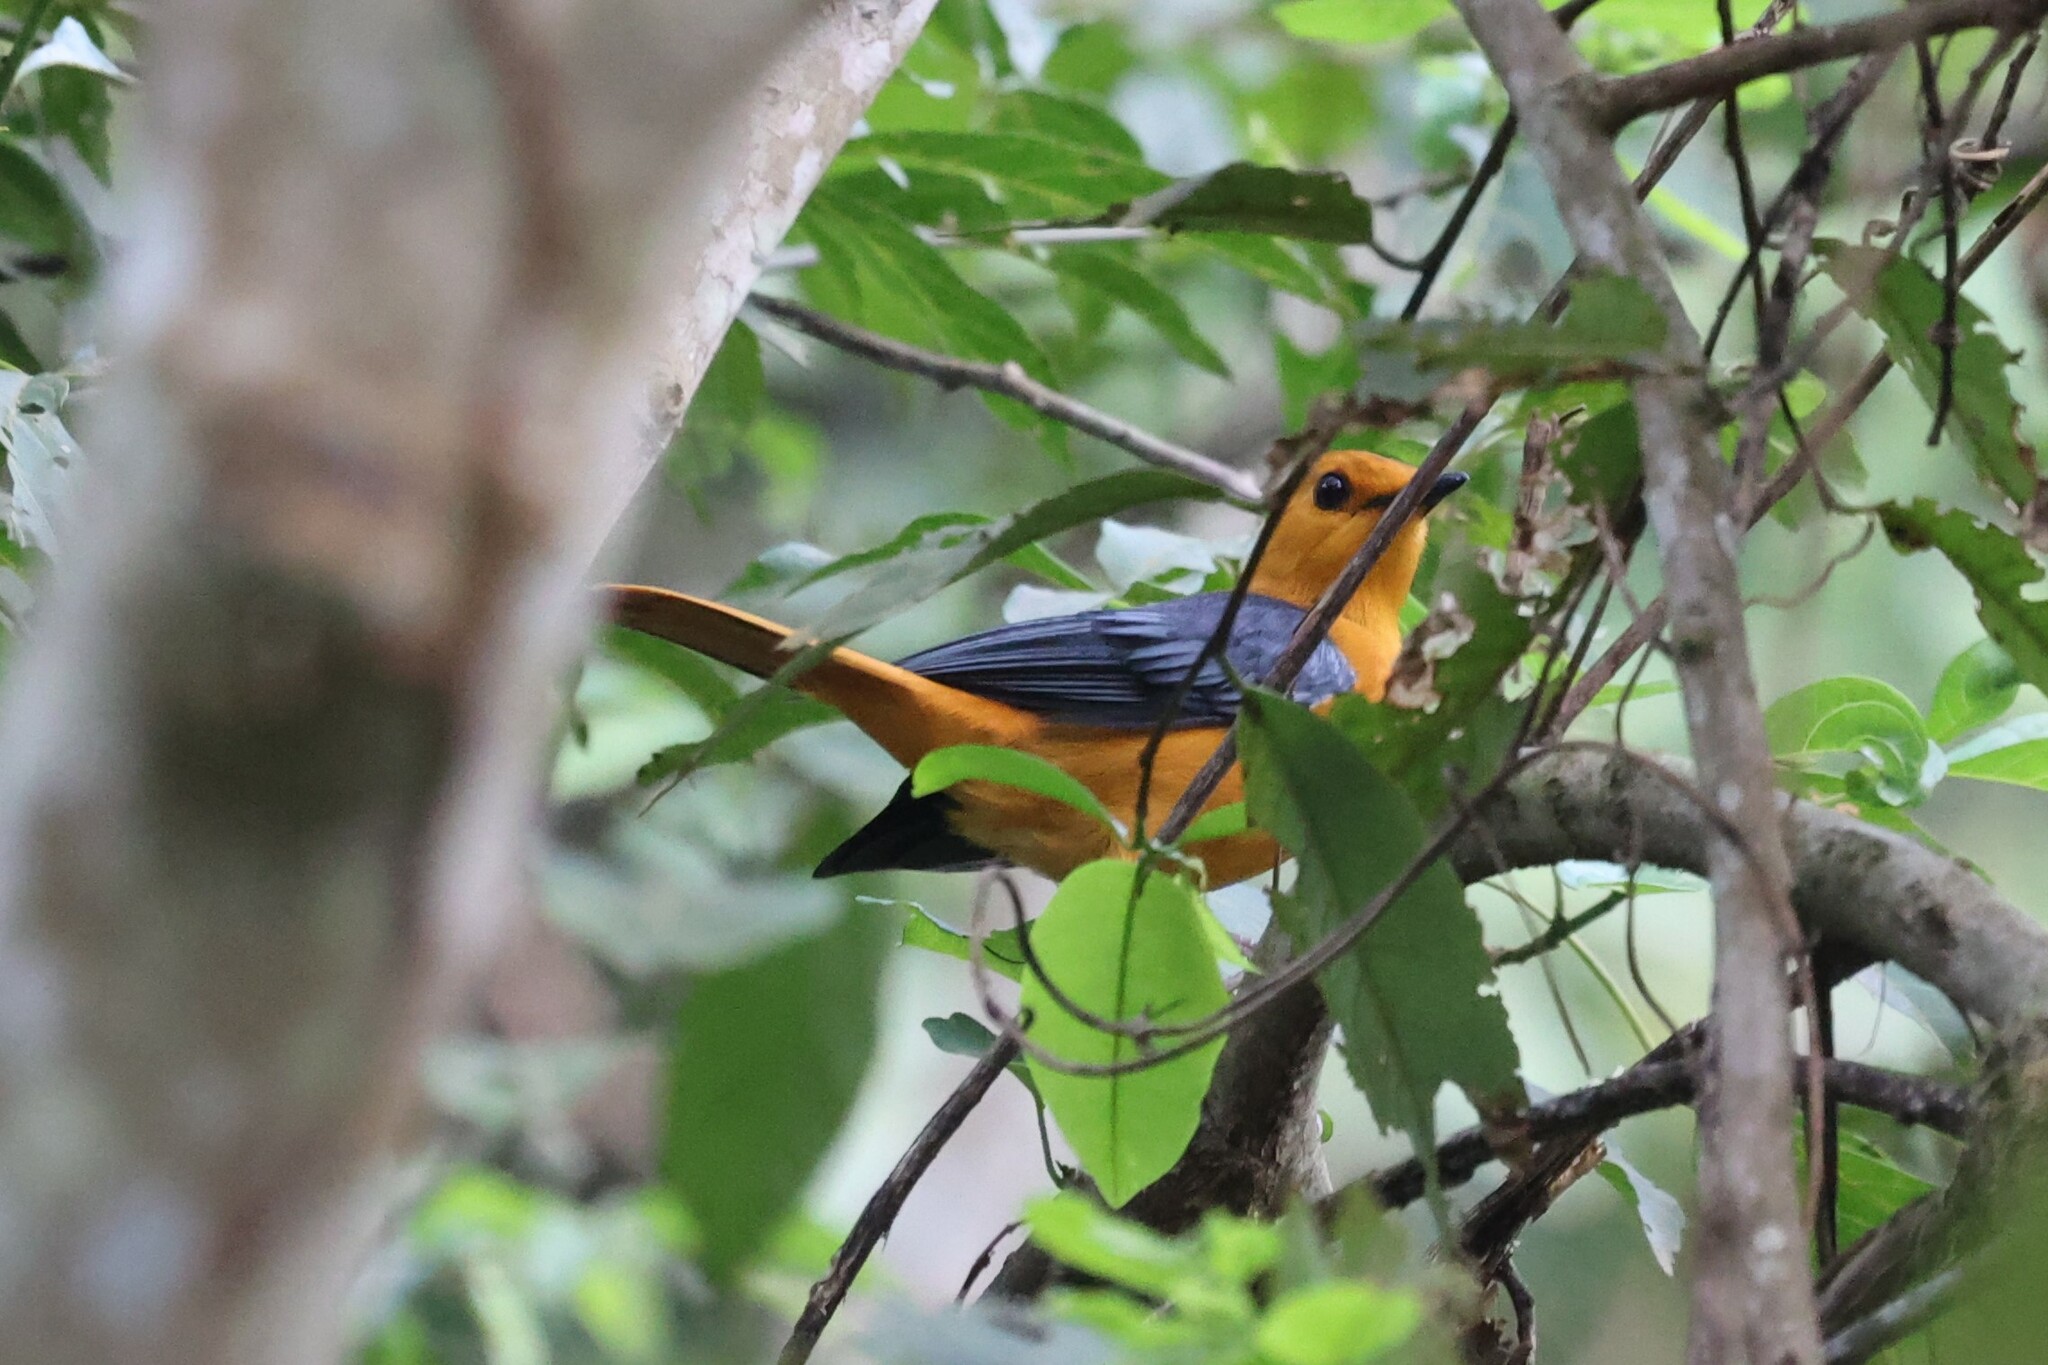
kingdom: Animalia
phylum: Chordata
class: Aves
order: Passeriformes
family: Muscicapidae
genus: Cossypha
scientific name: Cossypha natalensis
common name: Red-capped robin-chat
